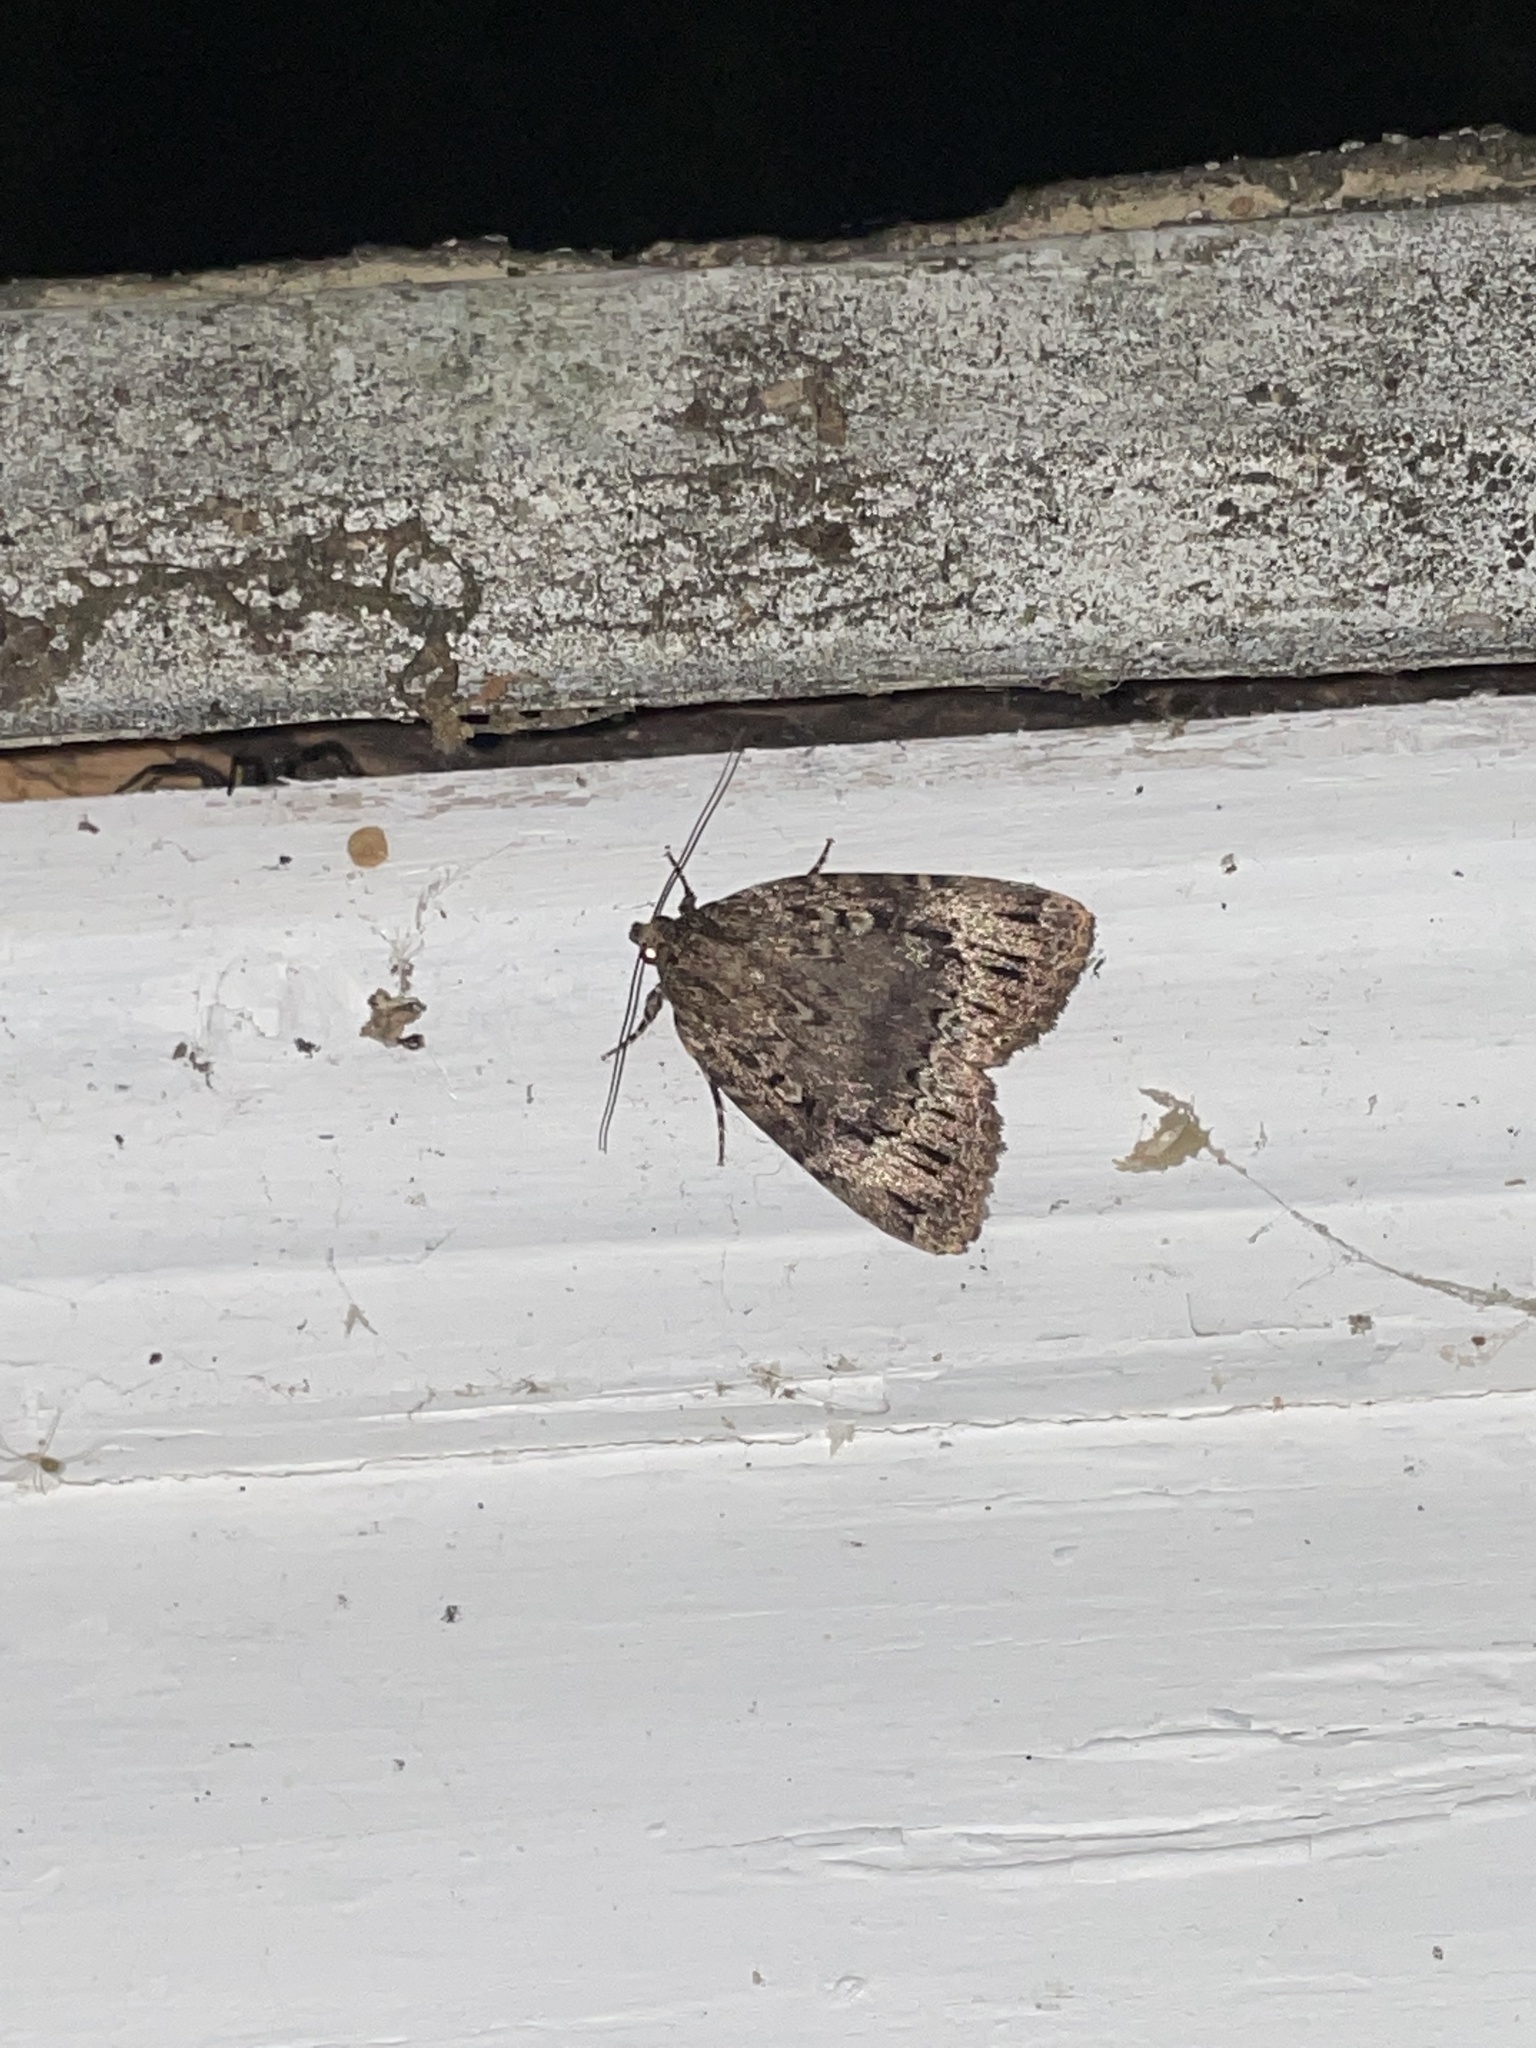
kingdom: Animalia
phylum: Arthropoda
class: Insecta
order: Lepidoptera
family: Noctuidae
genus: Amphipyra
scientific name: Amphipyra pyramidoides
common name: American copper underwing
